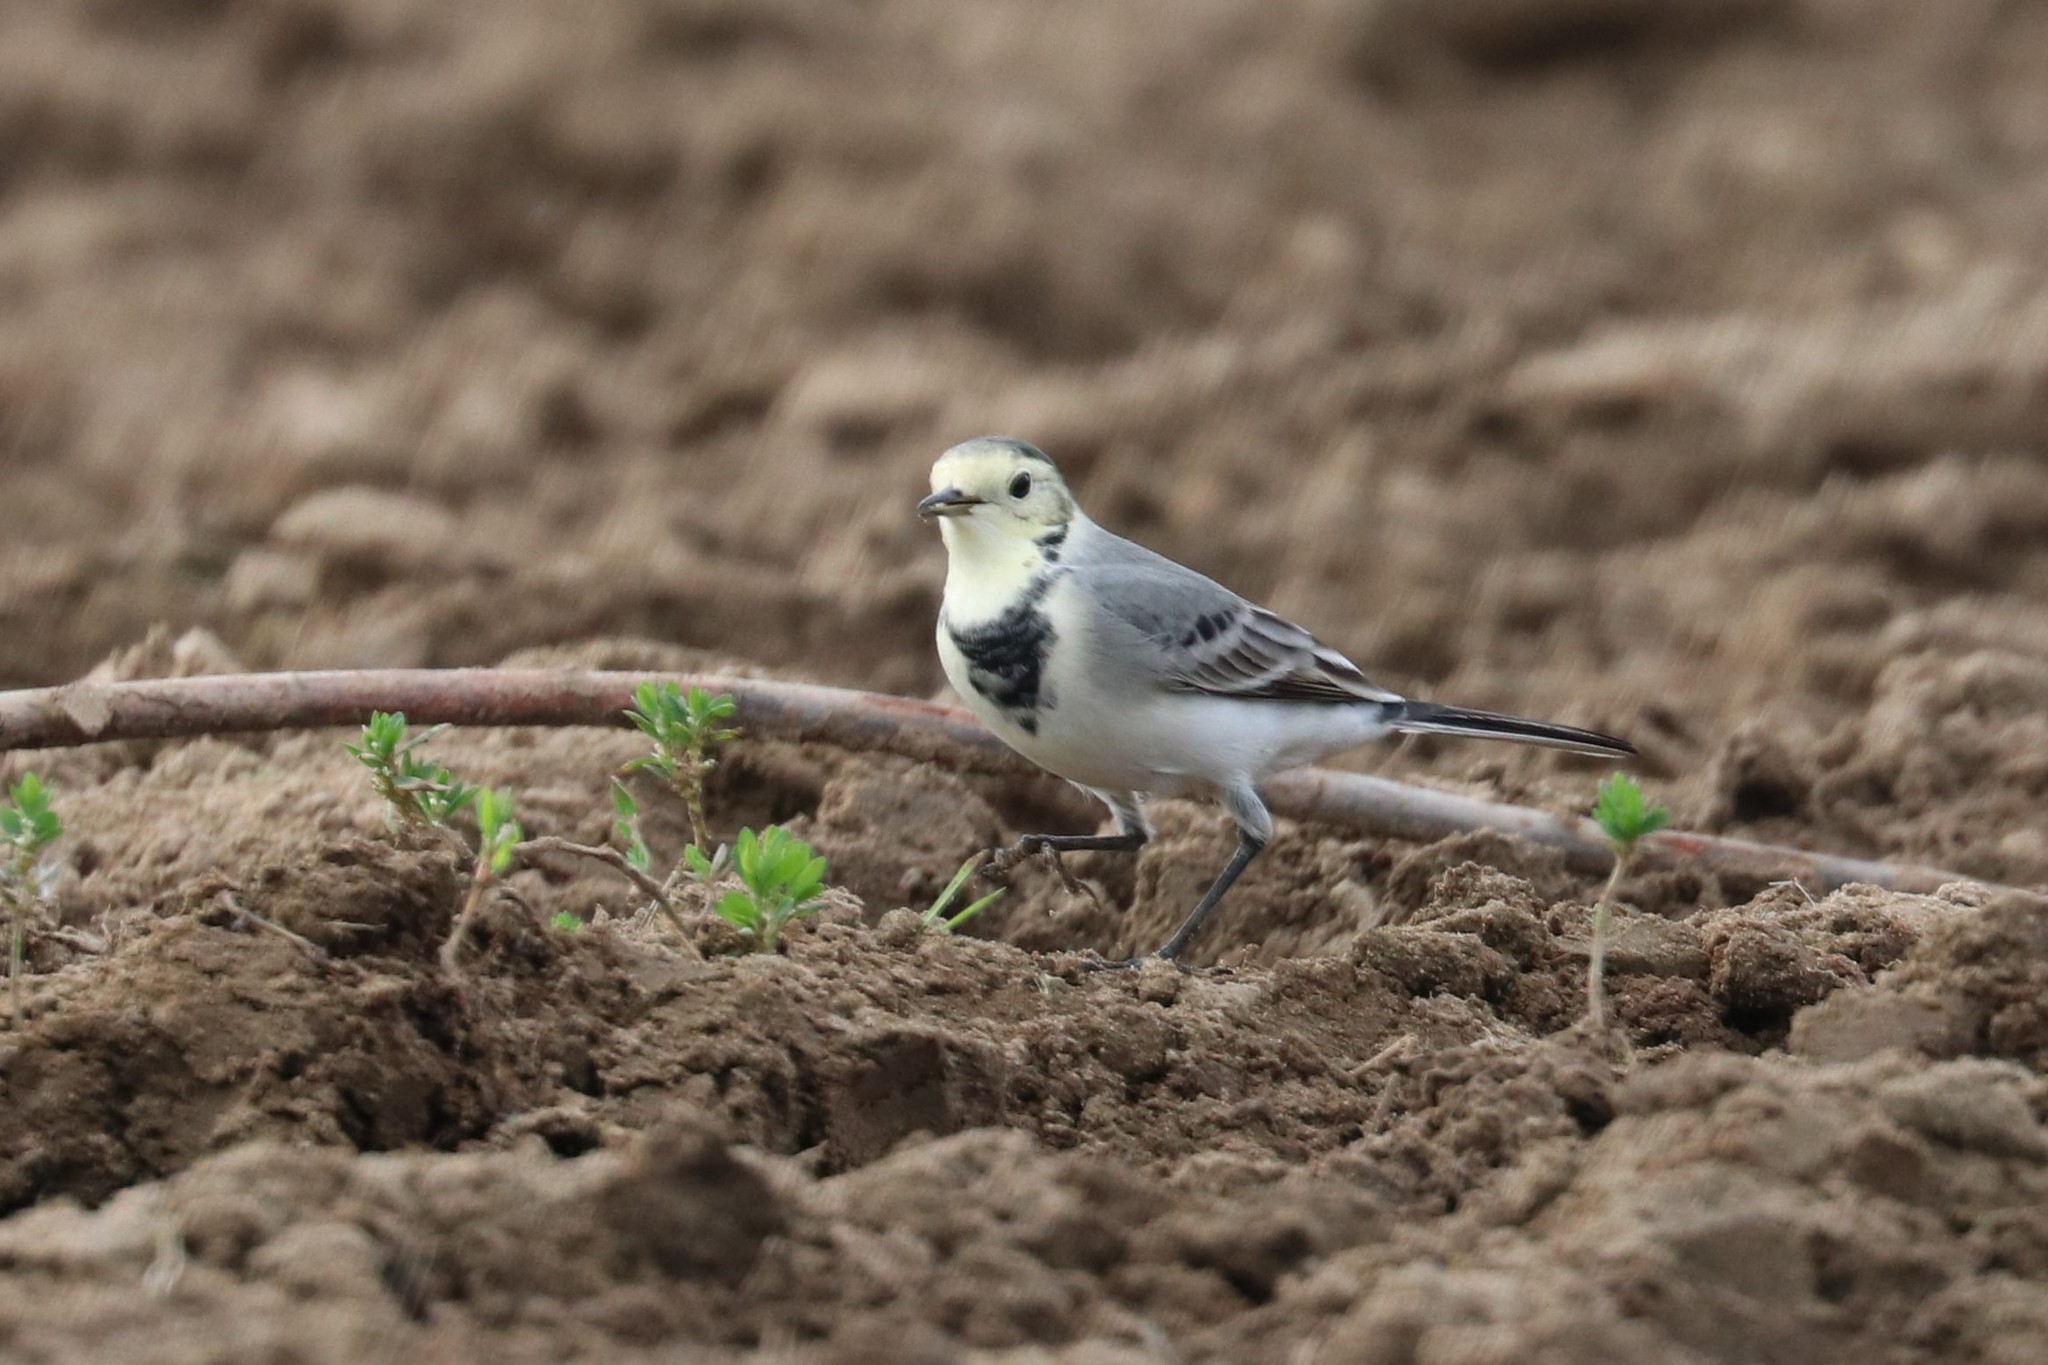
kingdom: Animalia
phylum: Chordata
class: Aves
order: Passeriformes
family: Motacillidae
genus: Motacilla
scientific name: Motacilla alba
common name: White wagtail
